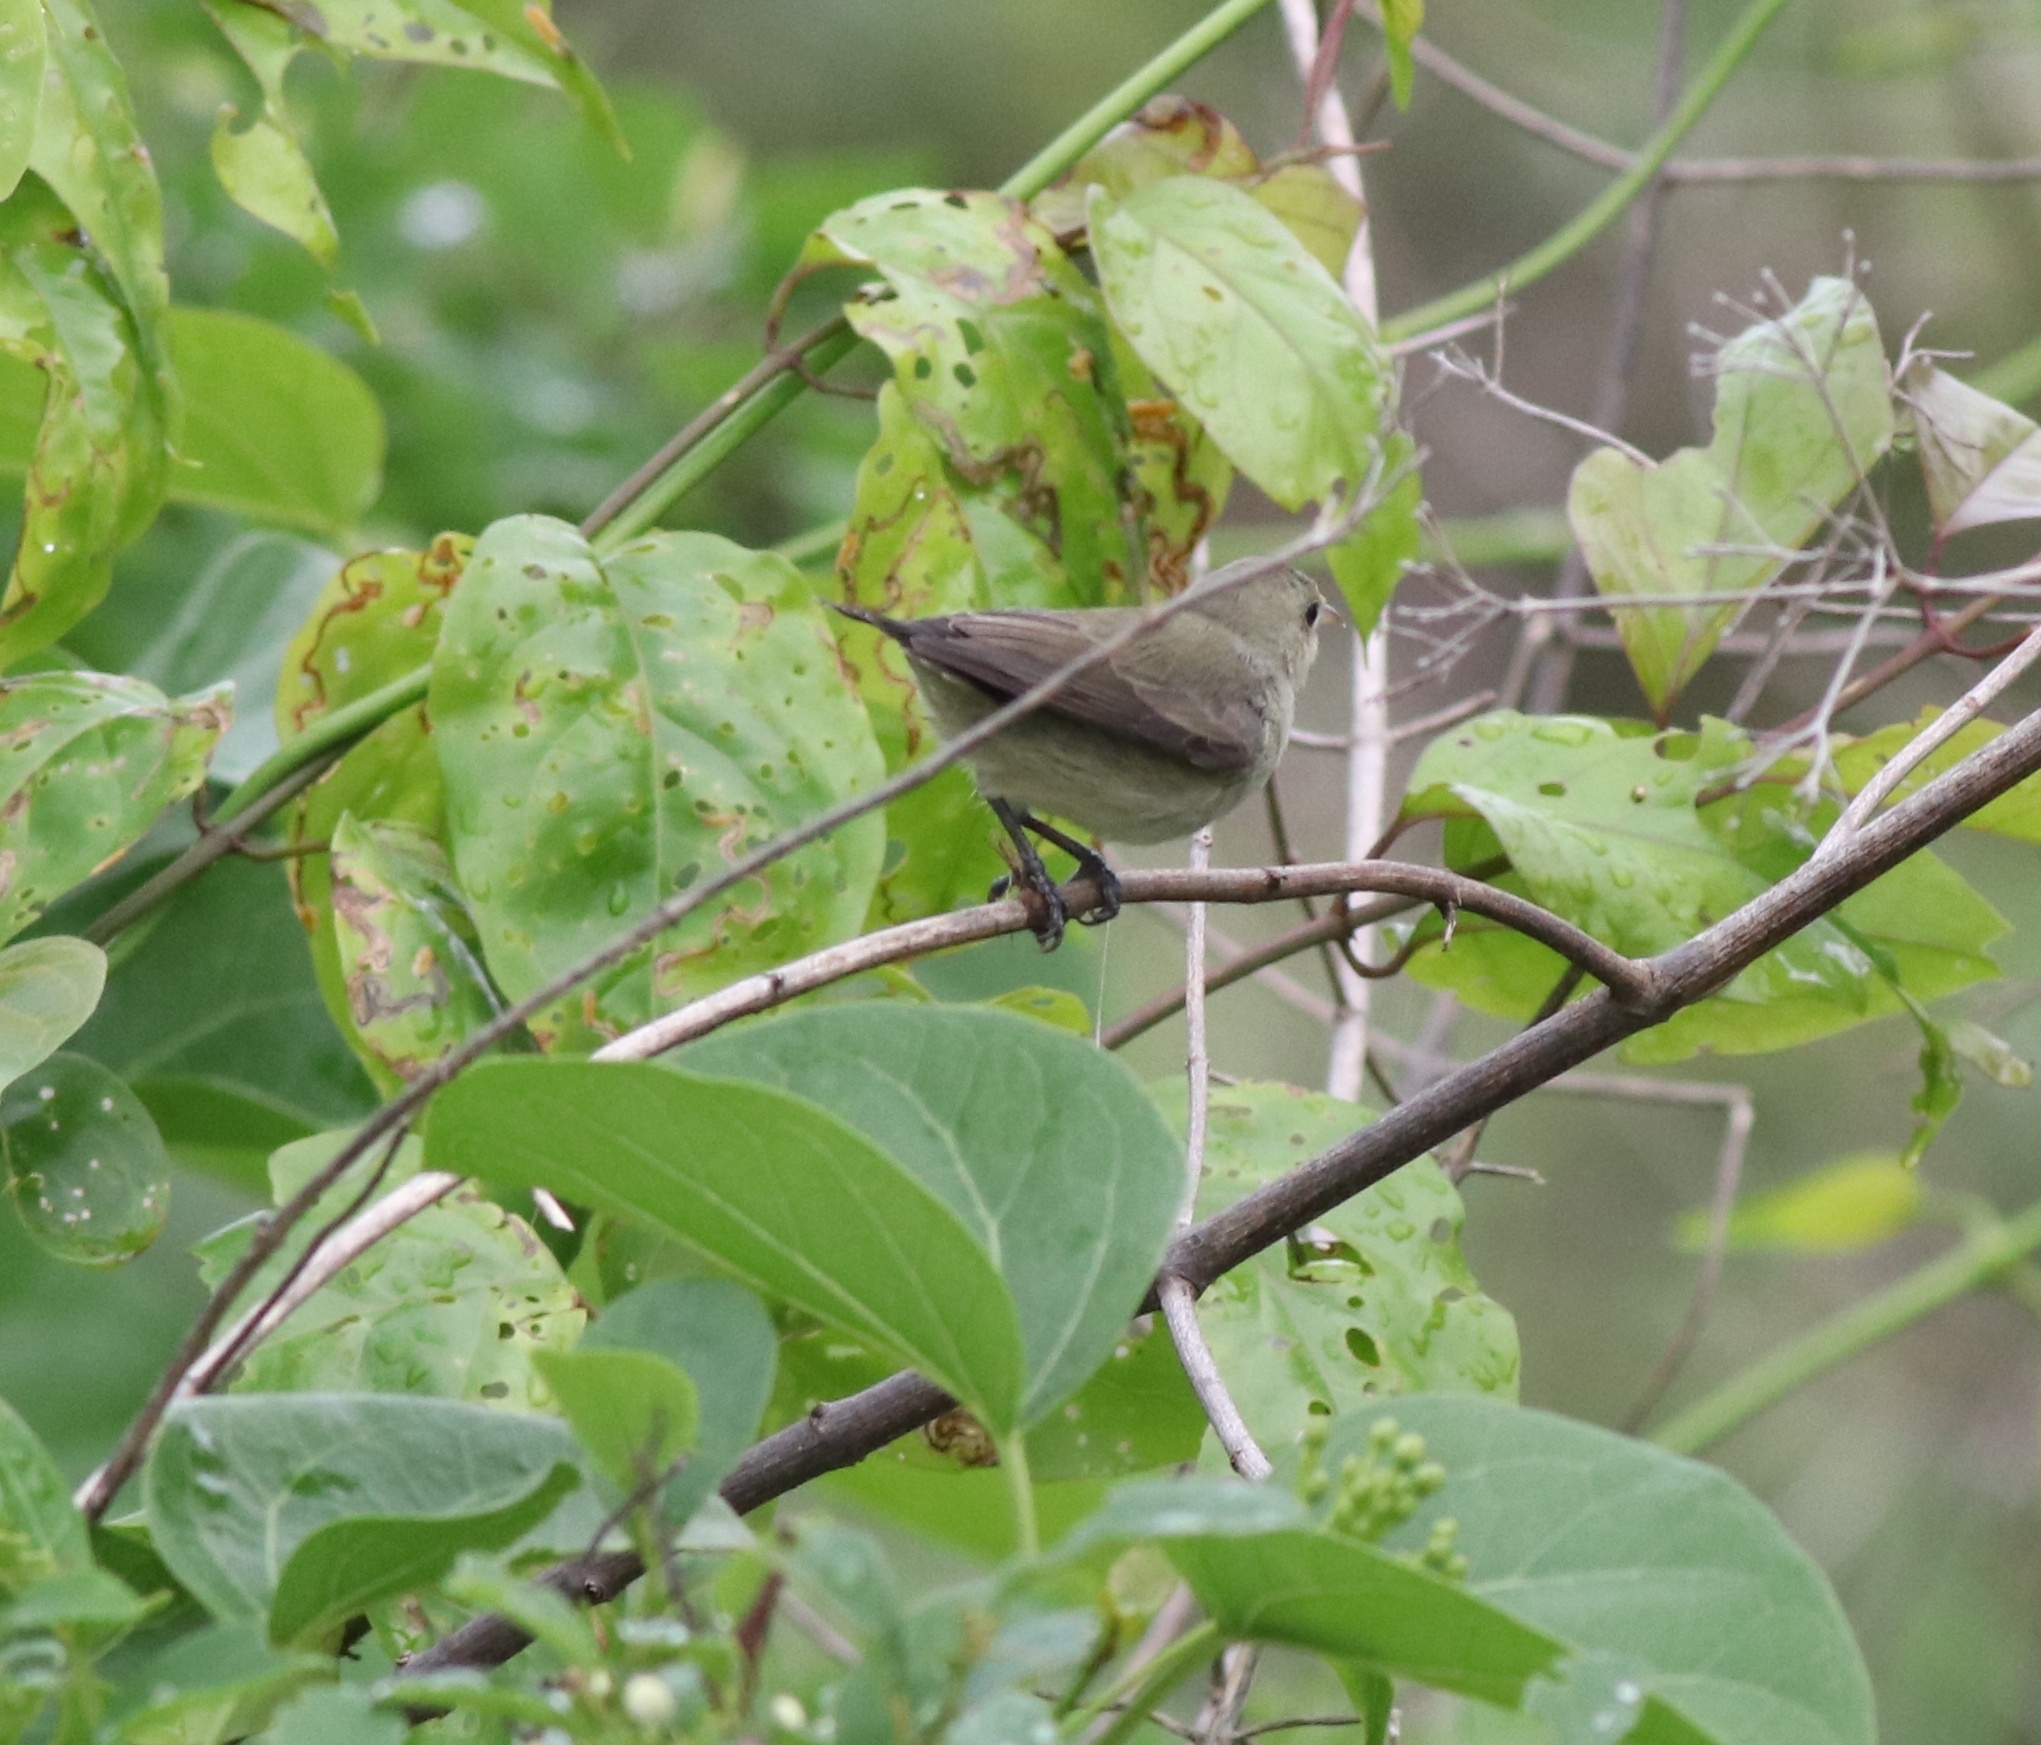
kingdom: Animalia
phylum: Chordata
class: Aves
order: Passeriformes
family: Dicaeidae
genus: Dicaeum
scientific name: Dicaeum erythrorhynchos
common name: Pale-billed flowerpecker
